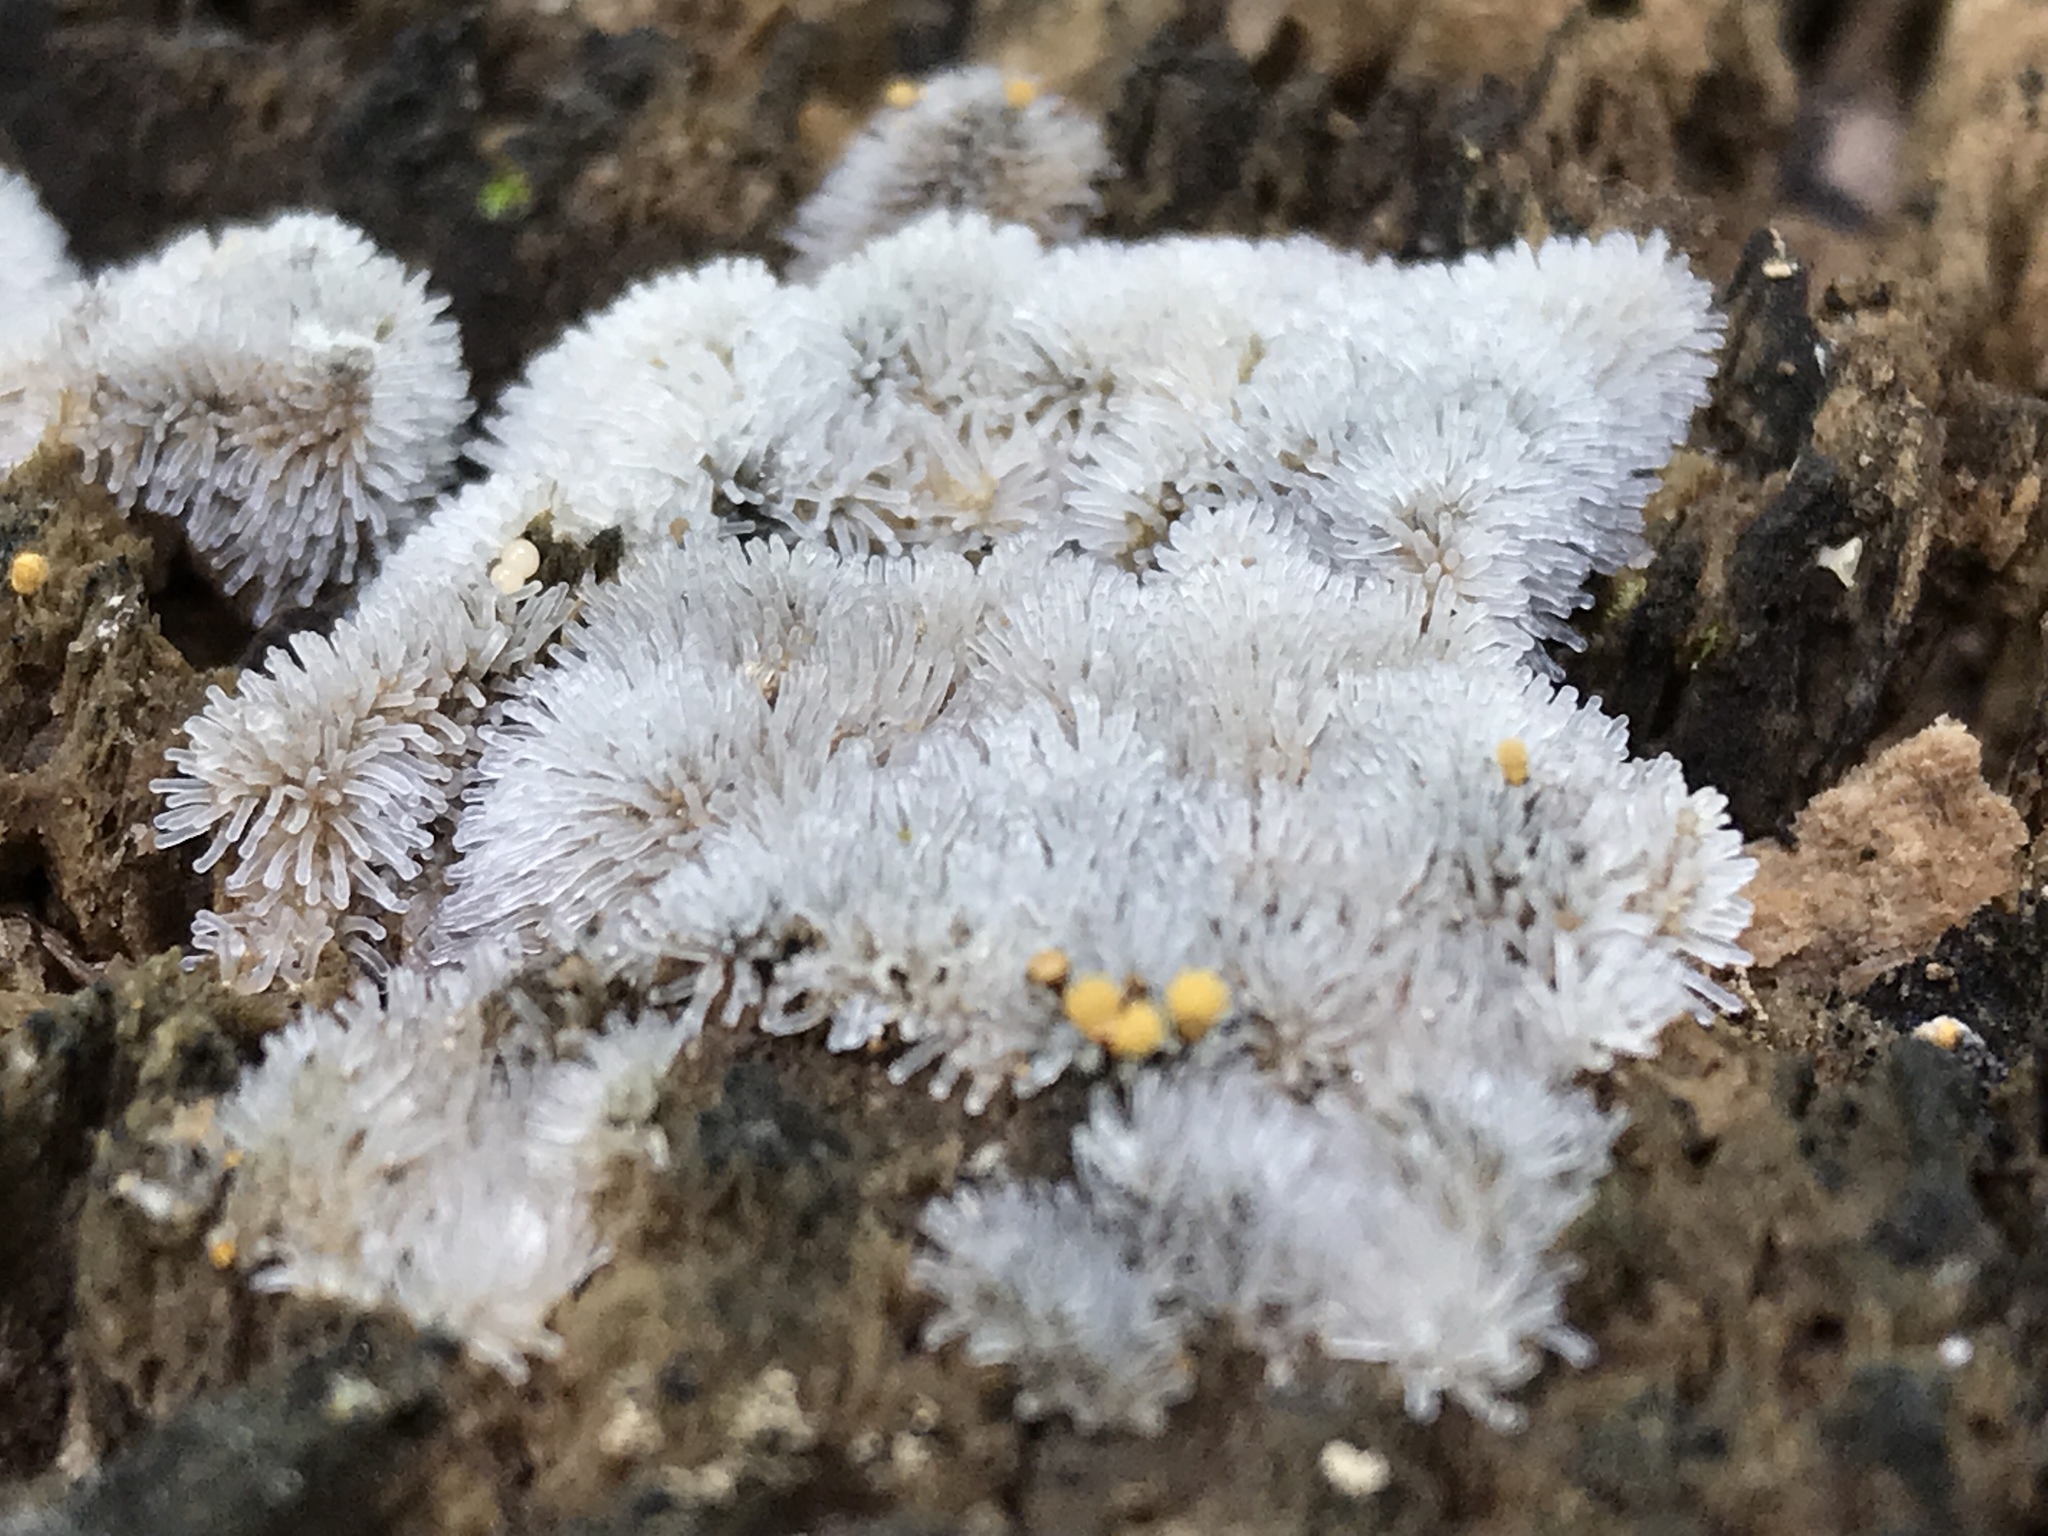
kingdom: Protozoa
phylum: Mycetozoa
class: Protosteliomycetes
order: Ceratiomyxales
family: Ceratiomyxaceae
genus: Ceratiomyxa
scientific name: Ceratiomyxa fruticulosa
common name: Honeycomb coral slime mold
